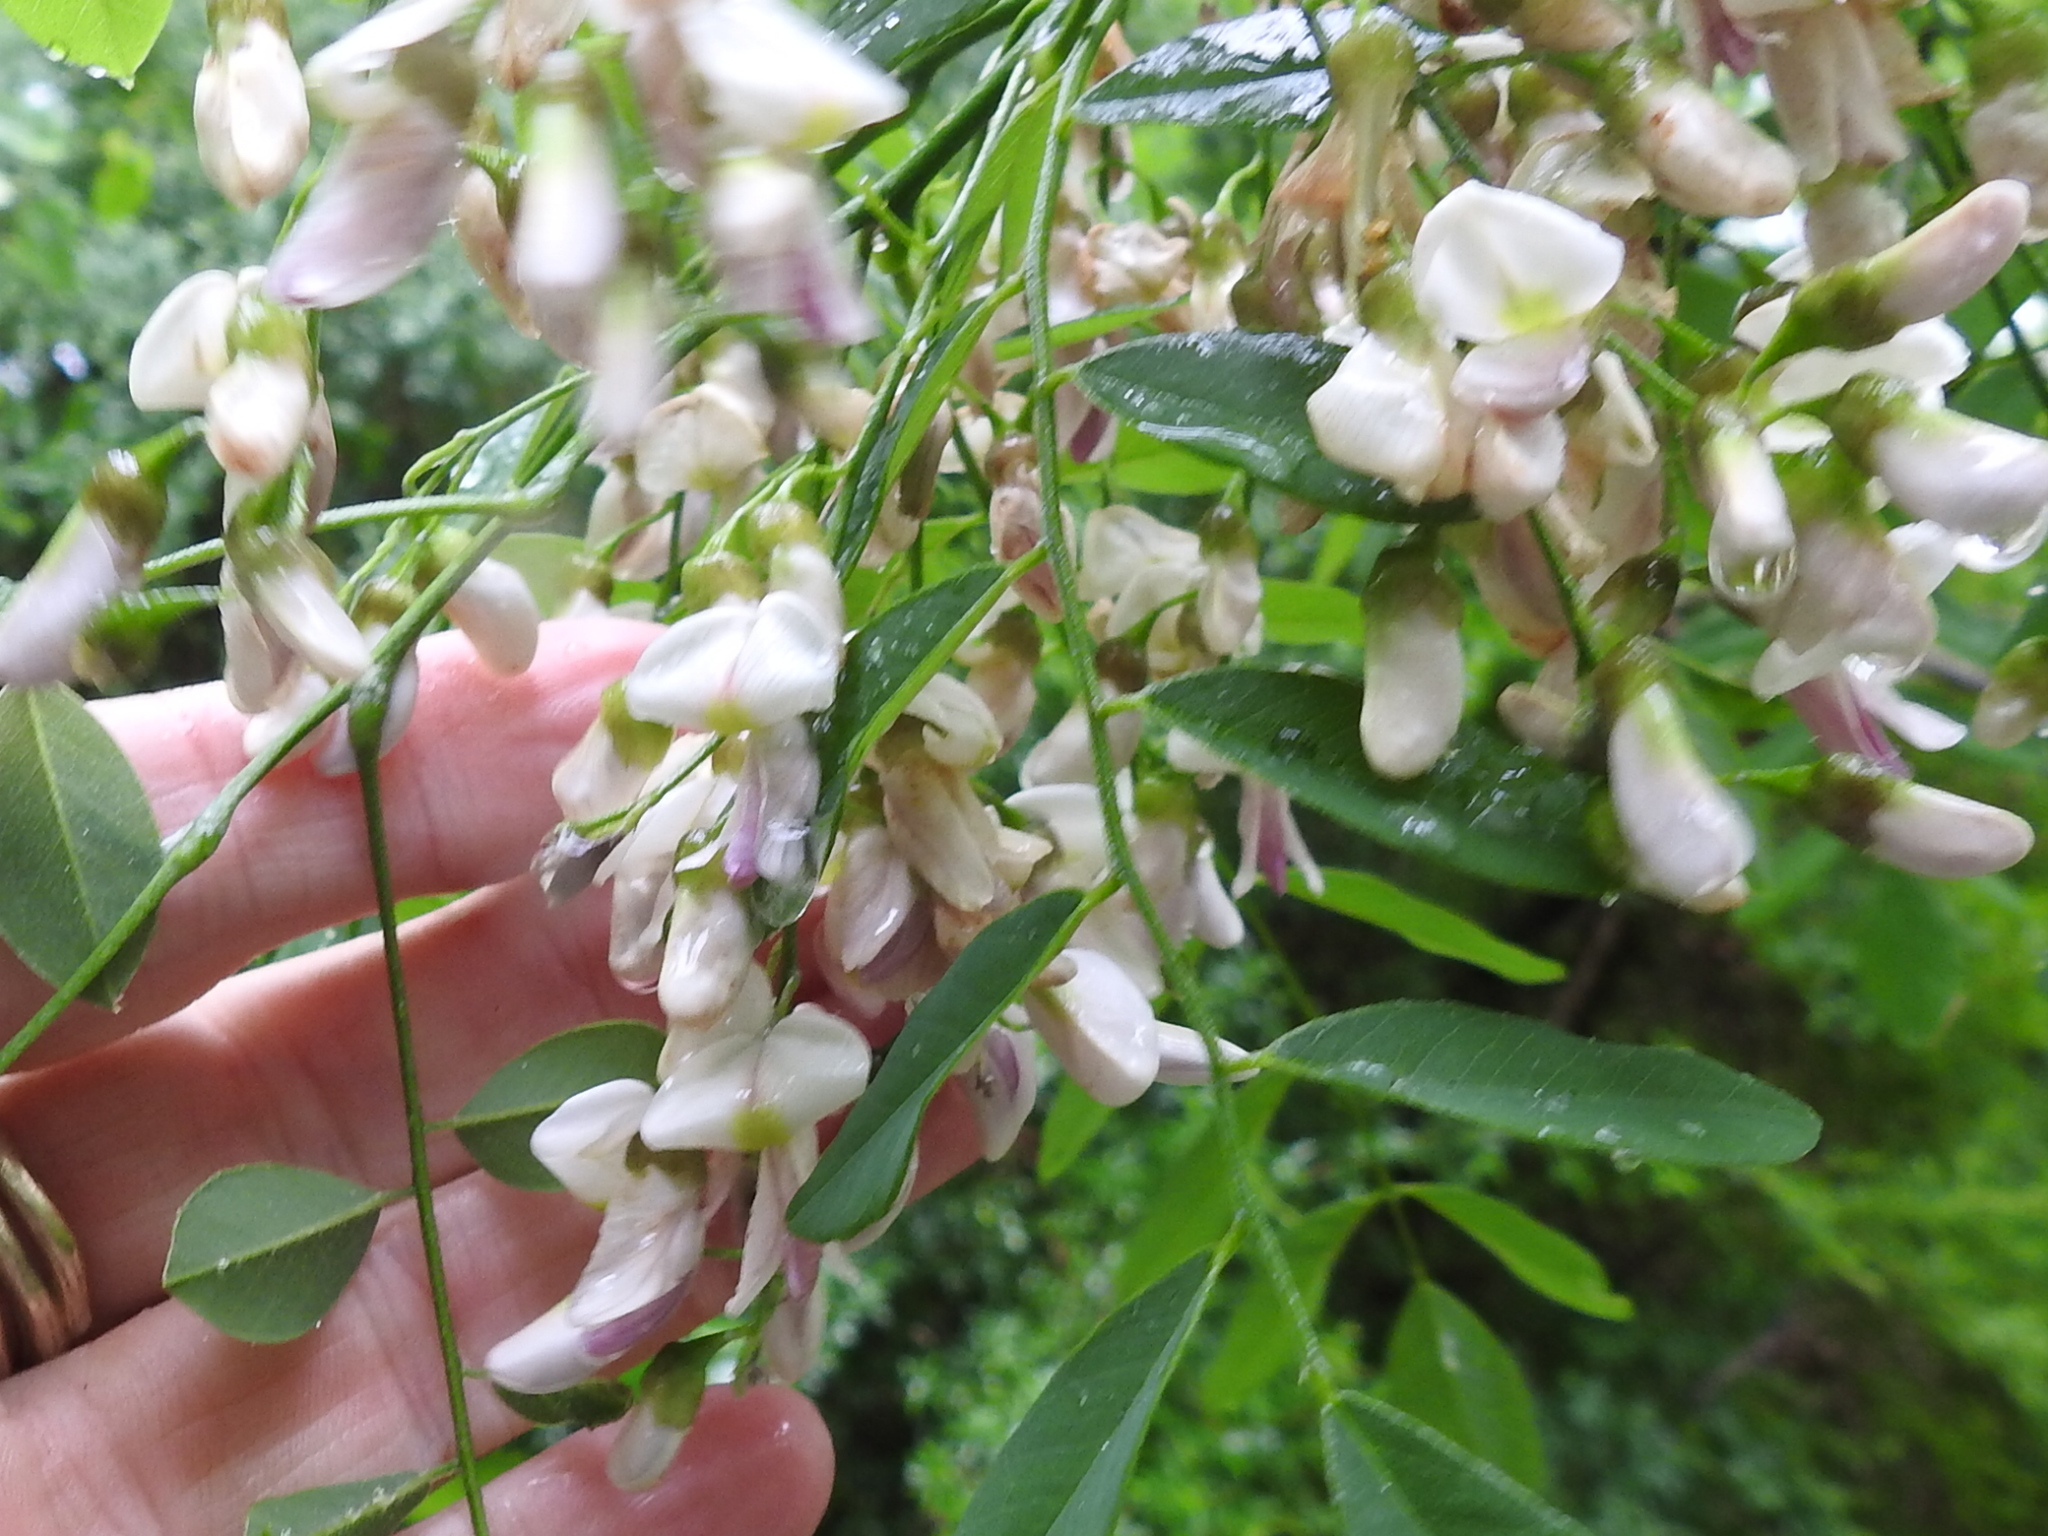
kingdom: Plantae
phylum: Tracheophyta
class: Magnoliopsida
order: Fabales
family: Fabaceae
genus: Styphnolobium
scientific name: Styphnolobium affine
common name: Texas sophora
